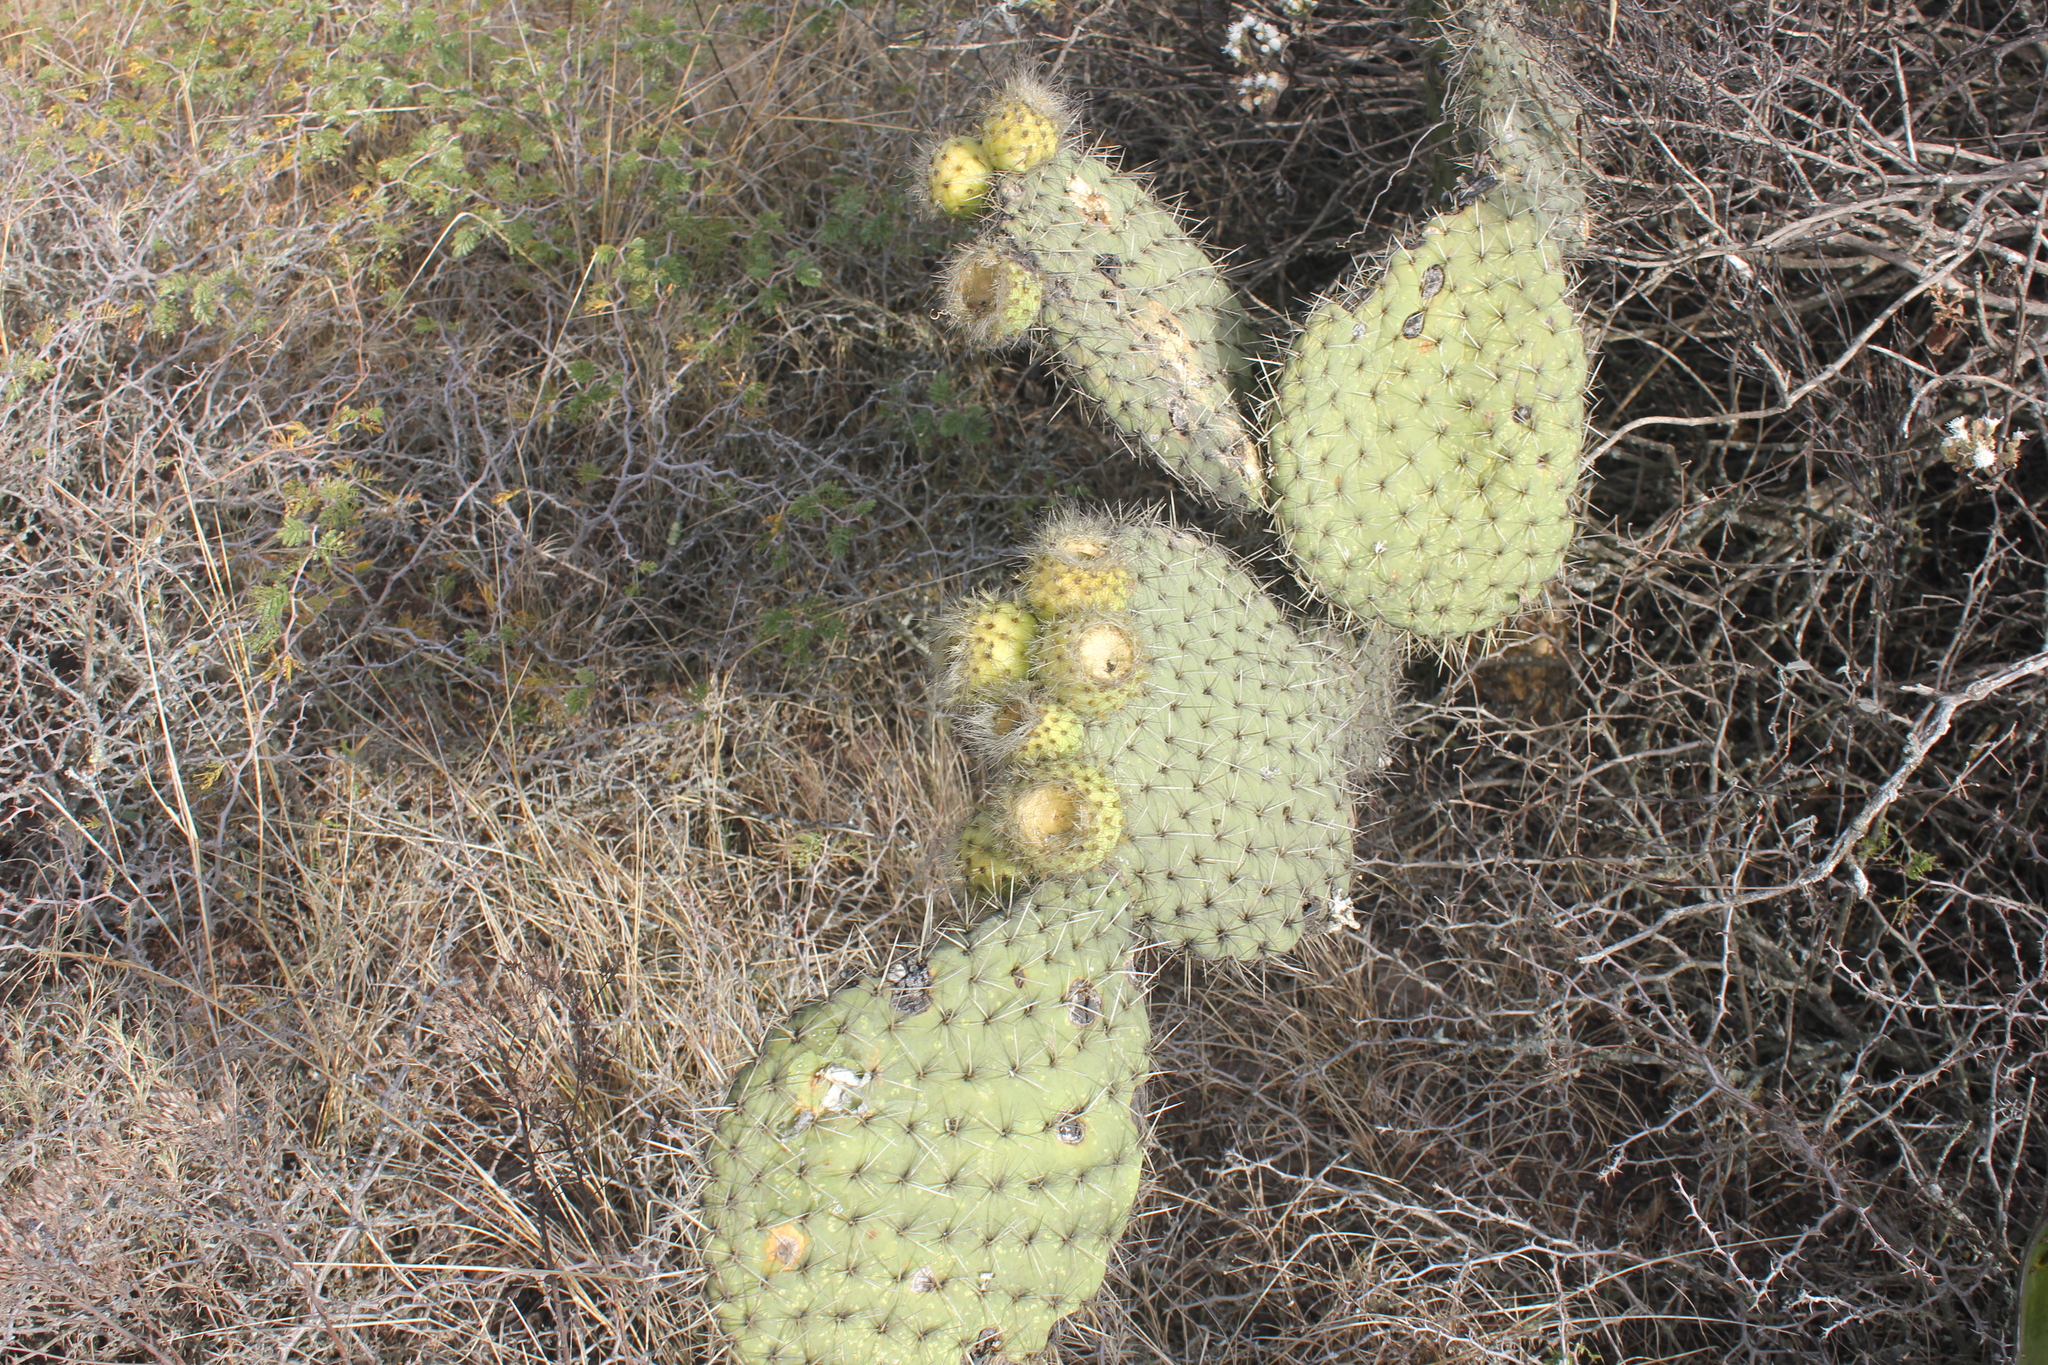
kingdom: Plantae
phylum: Tracheophyta
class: Magnoliopsida
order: Caryophyllales
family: Cactaceae
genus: Opuntia
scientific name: Opuntia huajuapensis
